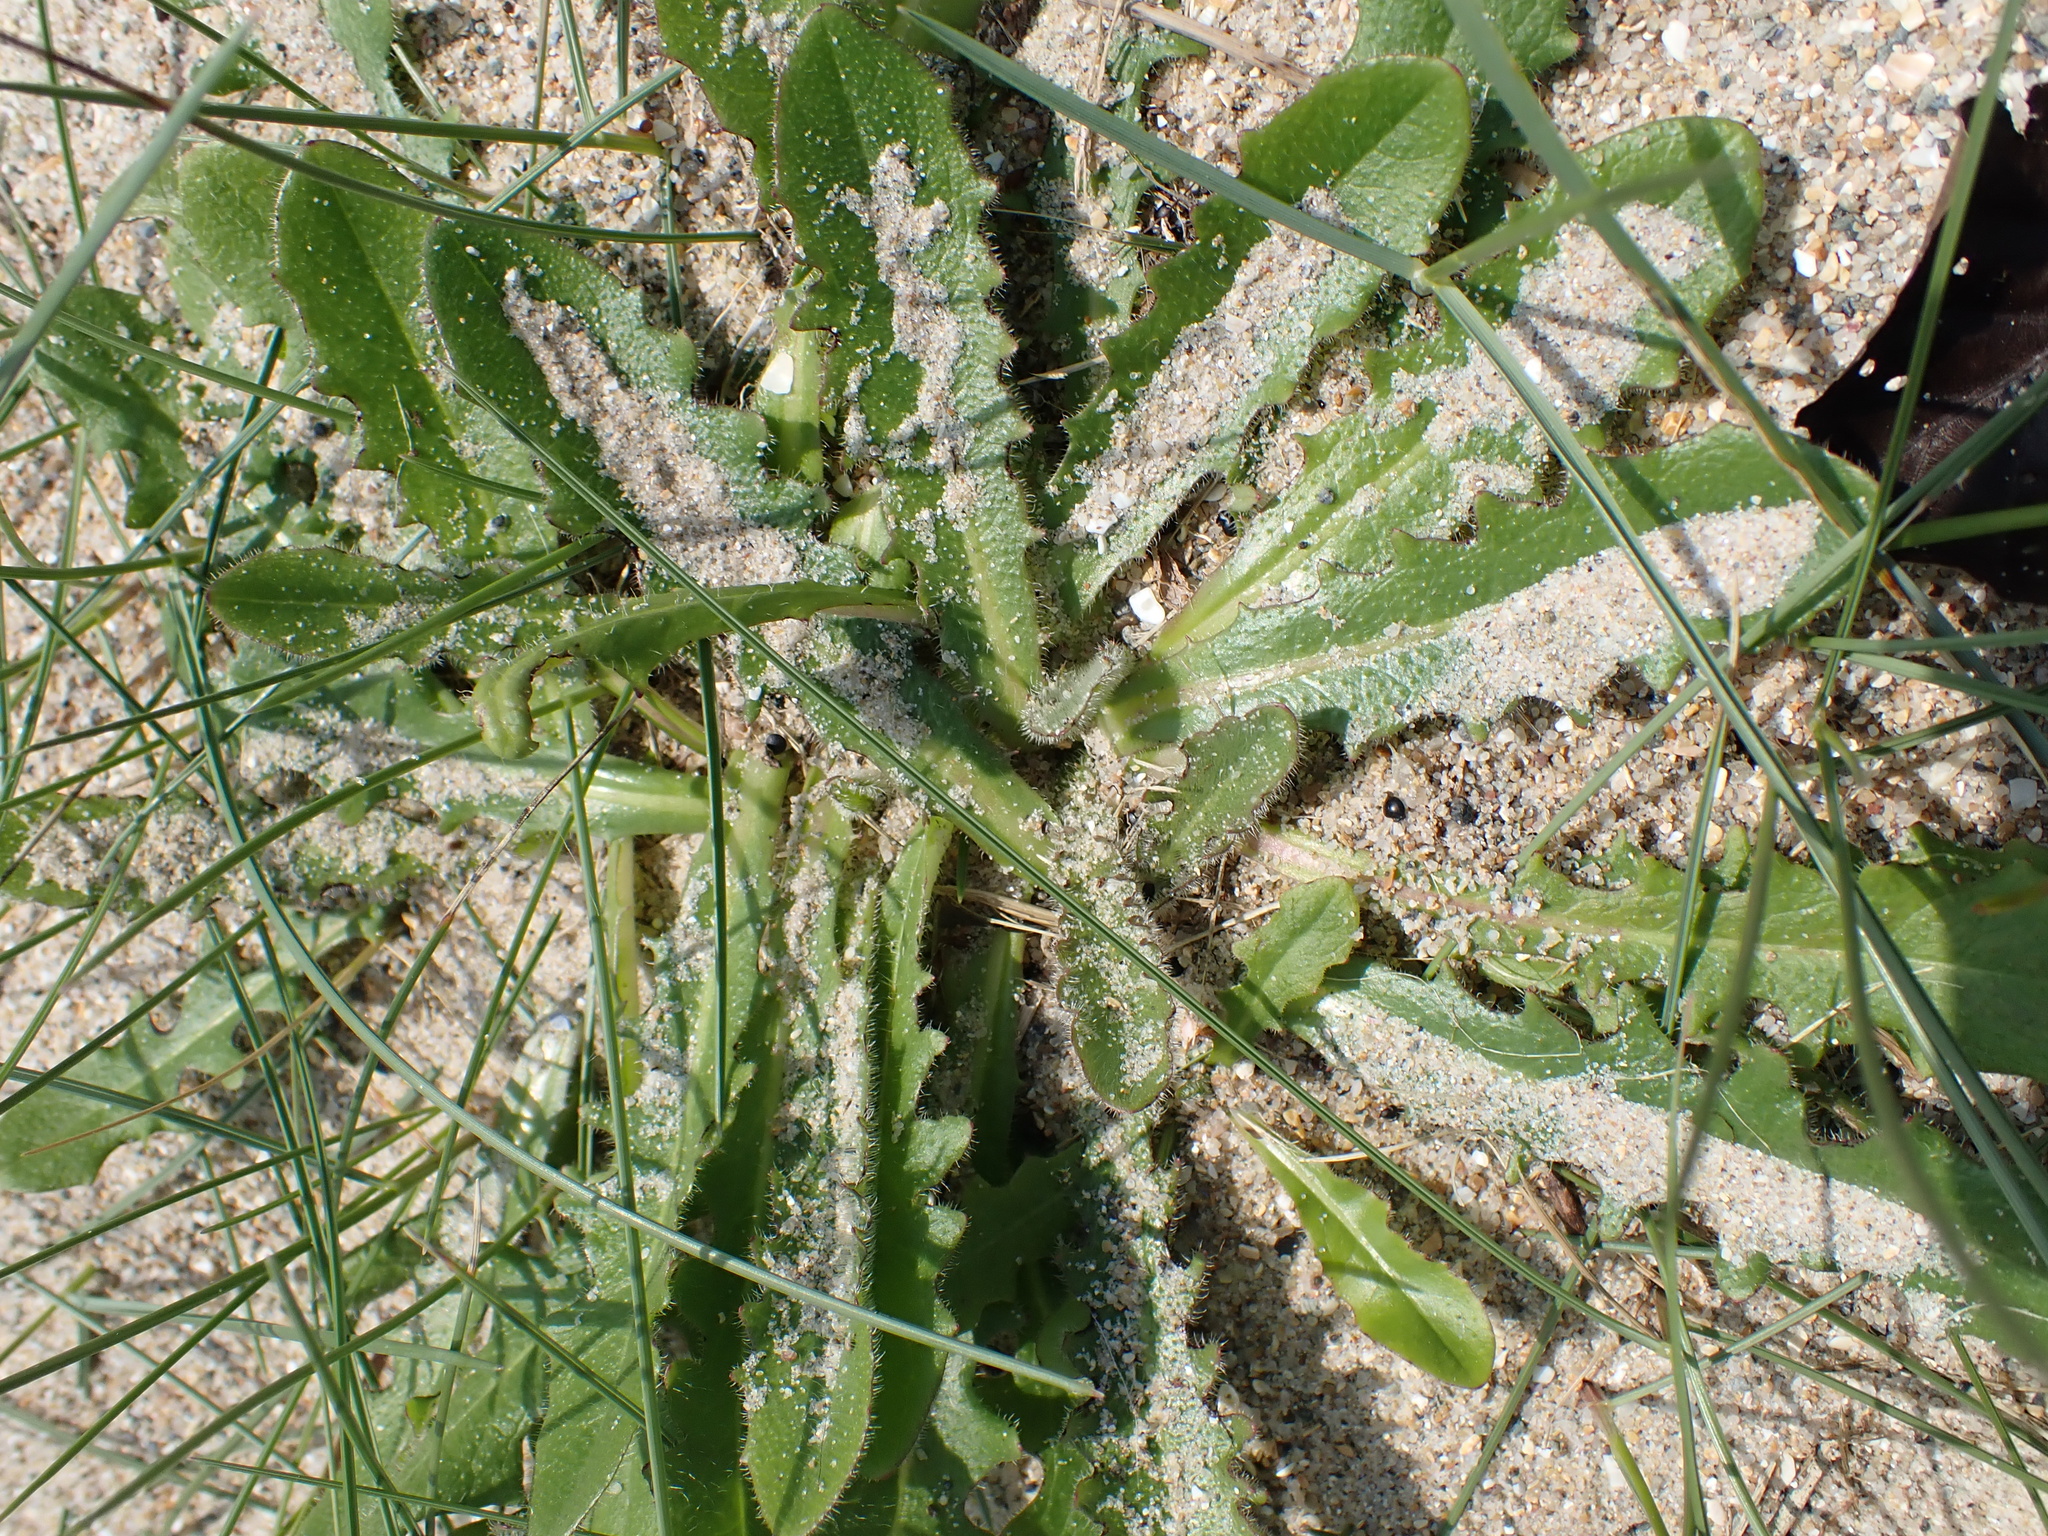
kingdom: Plantae
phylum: Tracheophyta
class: Magnoliopsida
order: Asterales
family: Asteraceae
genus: Hypochaeris
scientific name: Hypochaeris radicata
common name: Flatweed
